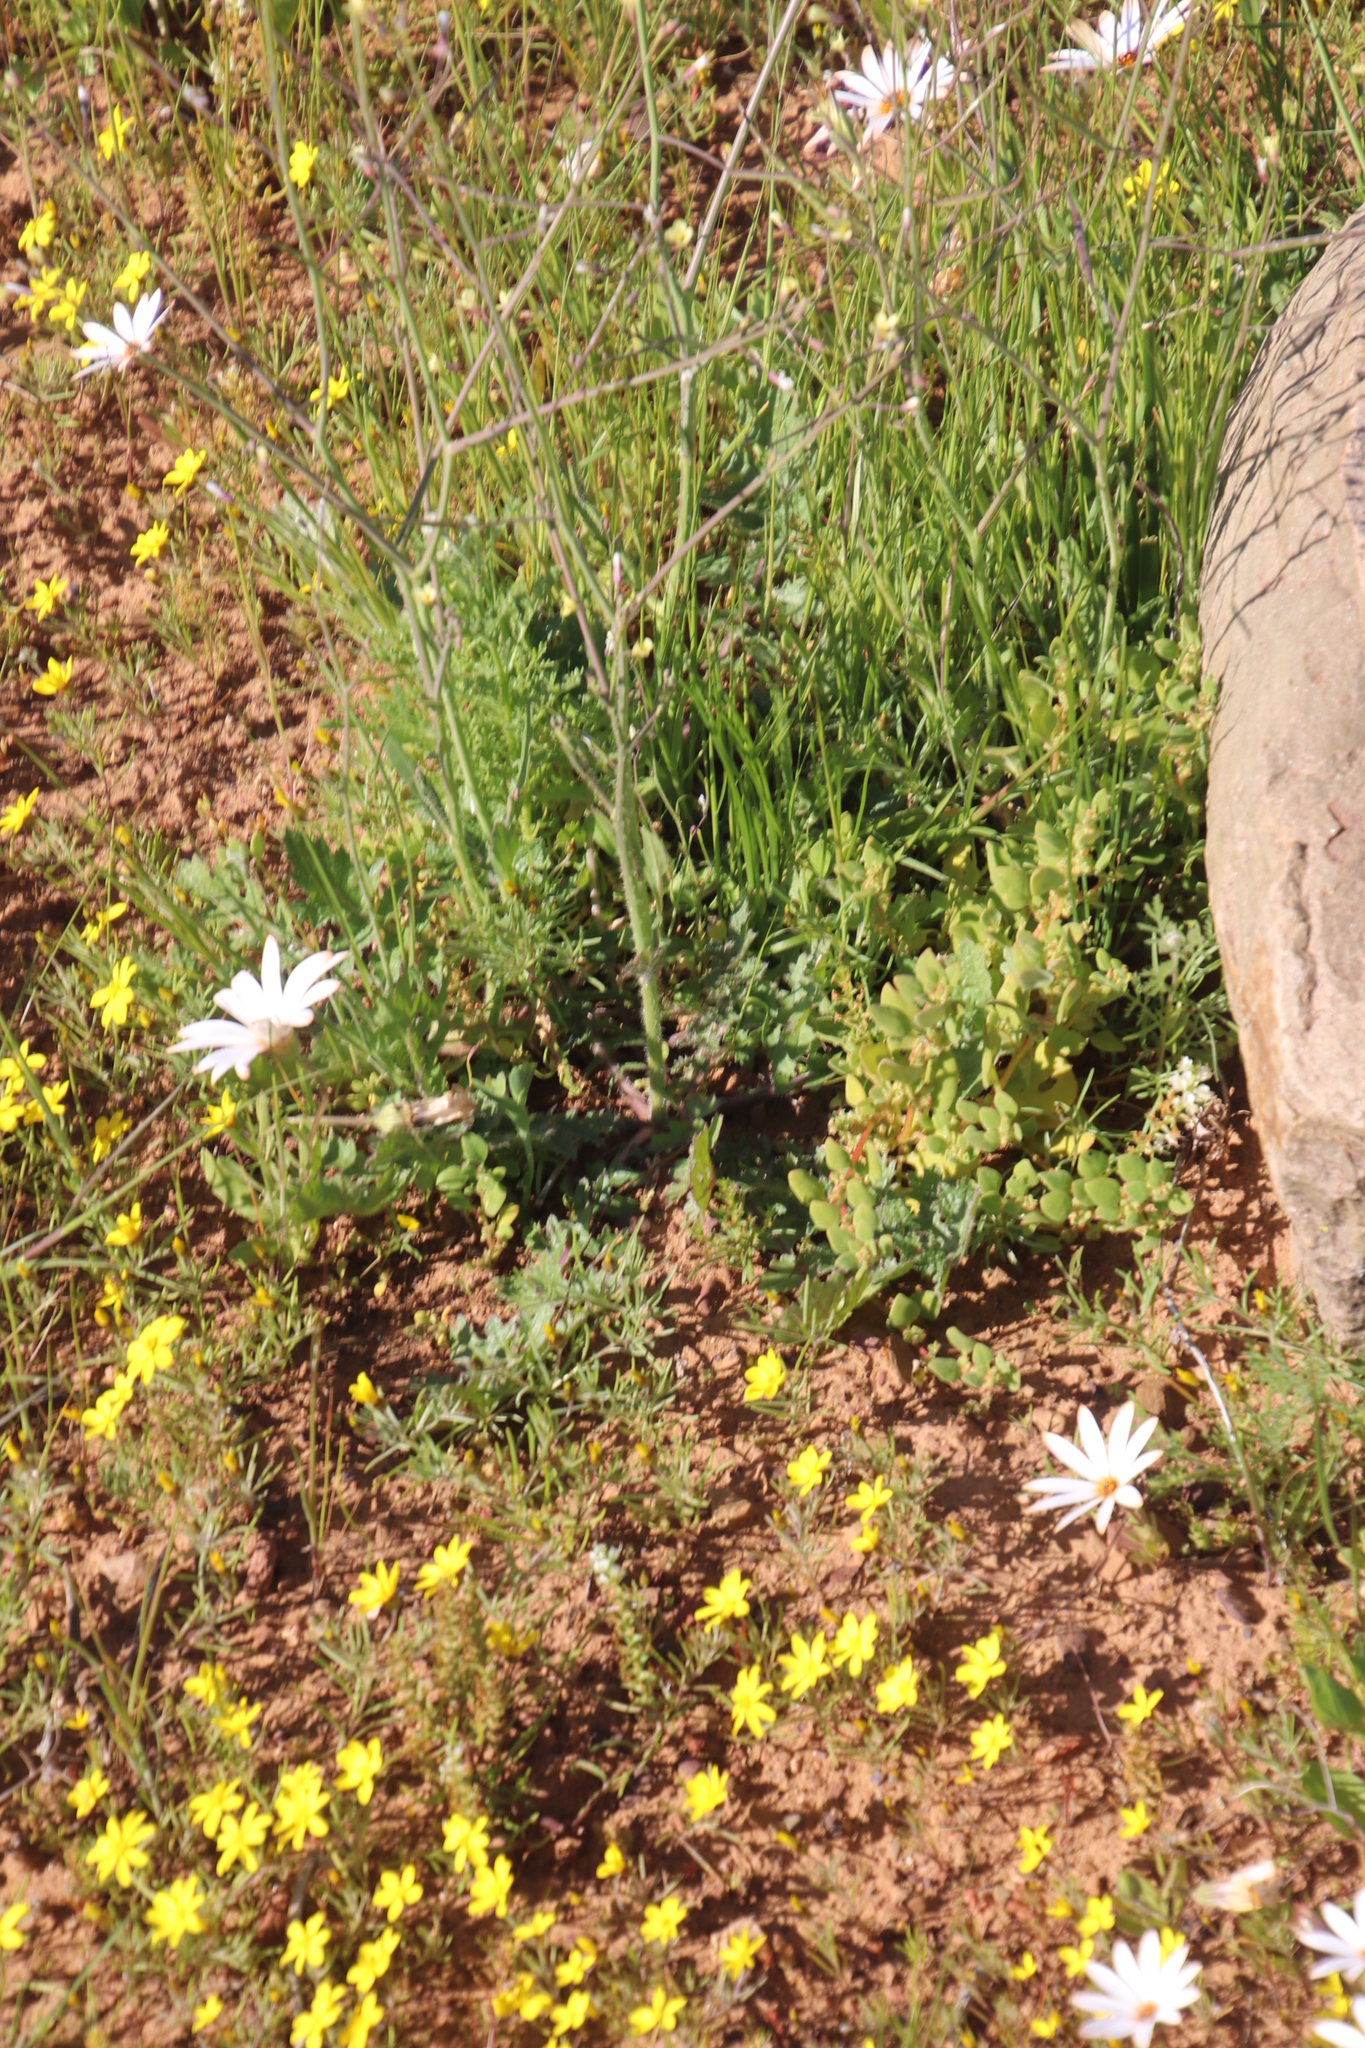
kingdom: Plantae
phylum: Tracheophyta
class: Magnoliopsida
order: Brassicales
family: Brassicaceae
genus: Brassica
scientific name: Brassica tournefortii
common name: Pale cabbage
